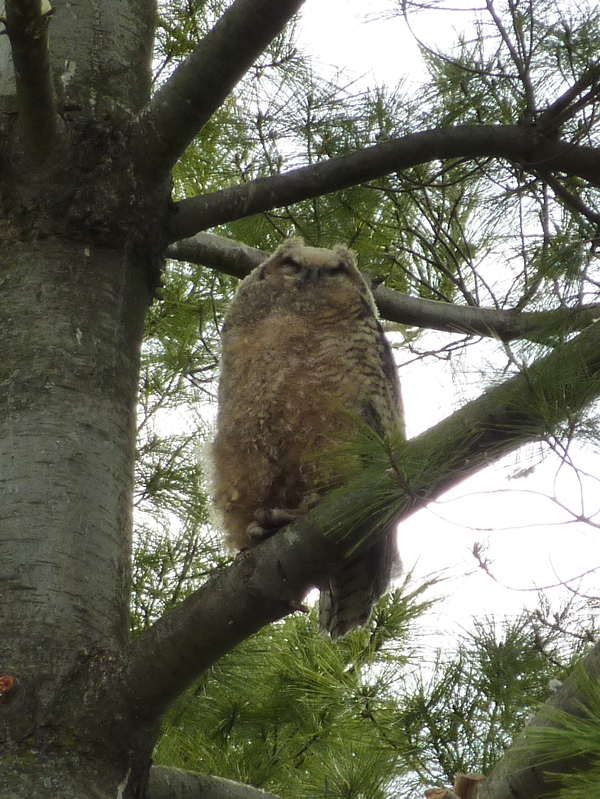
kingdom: Animalia
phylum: Chordata
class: Aves
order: Strigiformes
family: Strigidae
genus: Bubo
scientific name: Bubo virginianus
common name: Great horned owl
